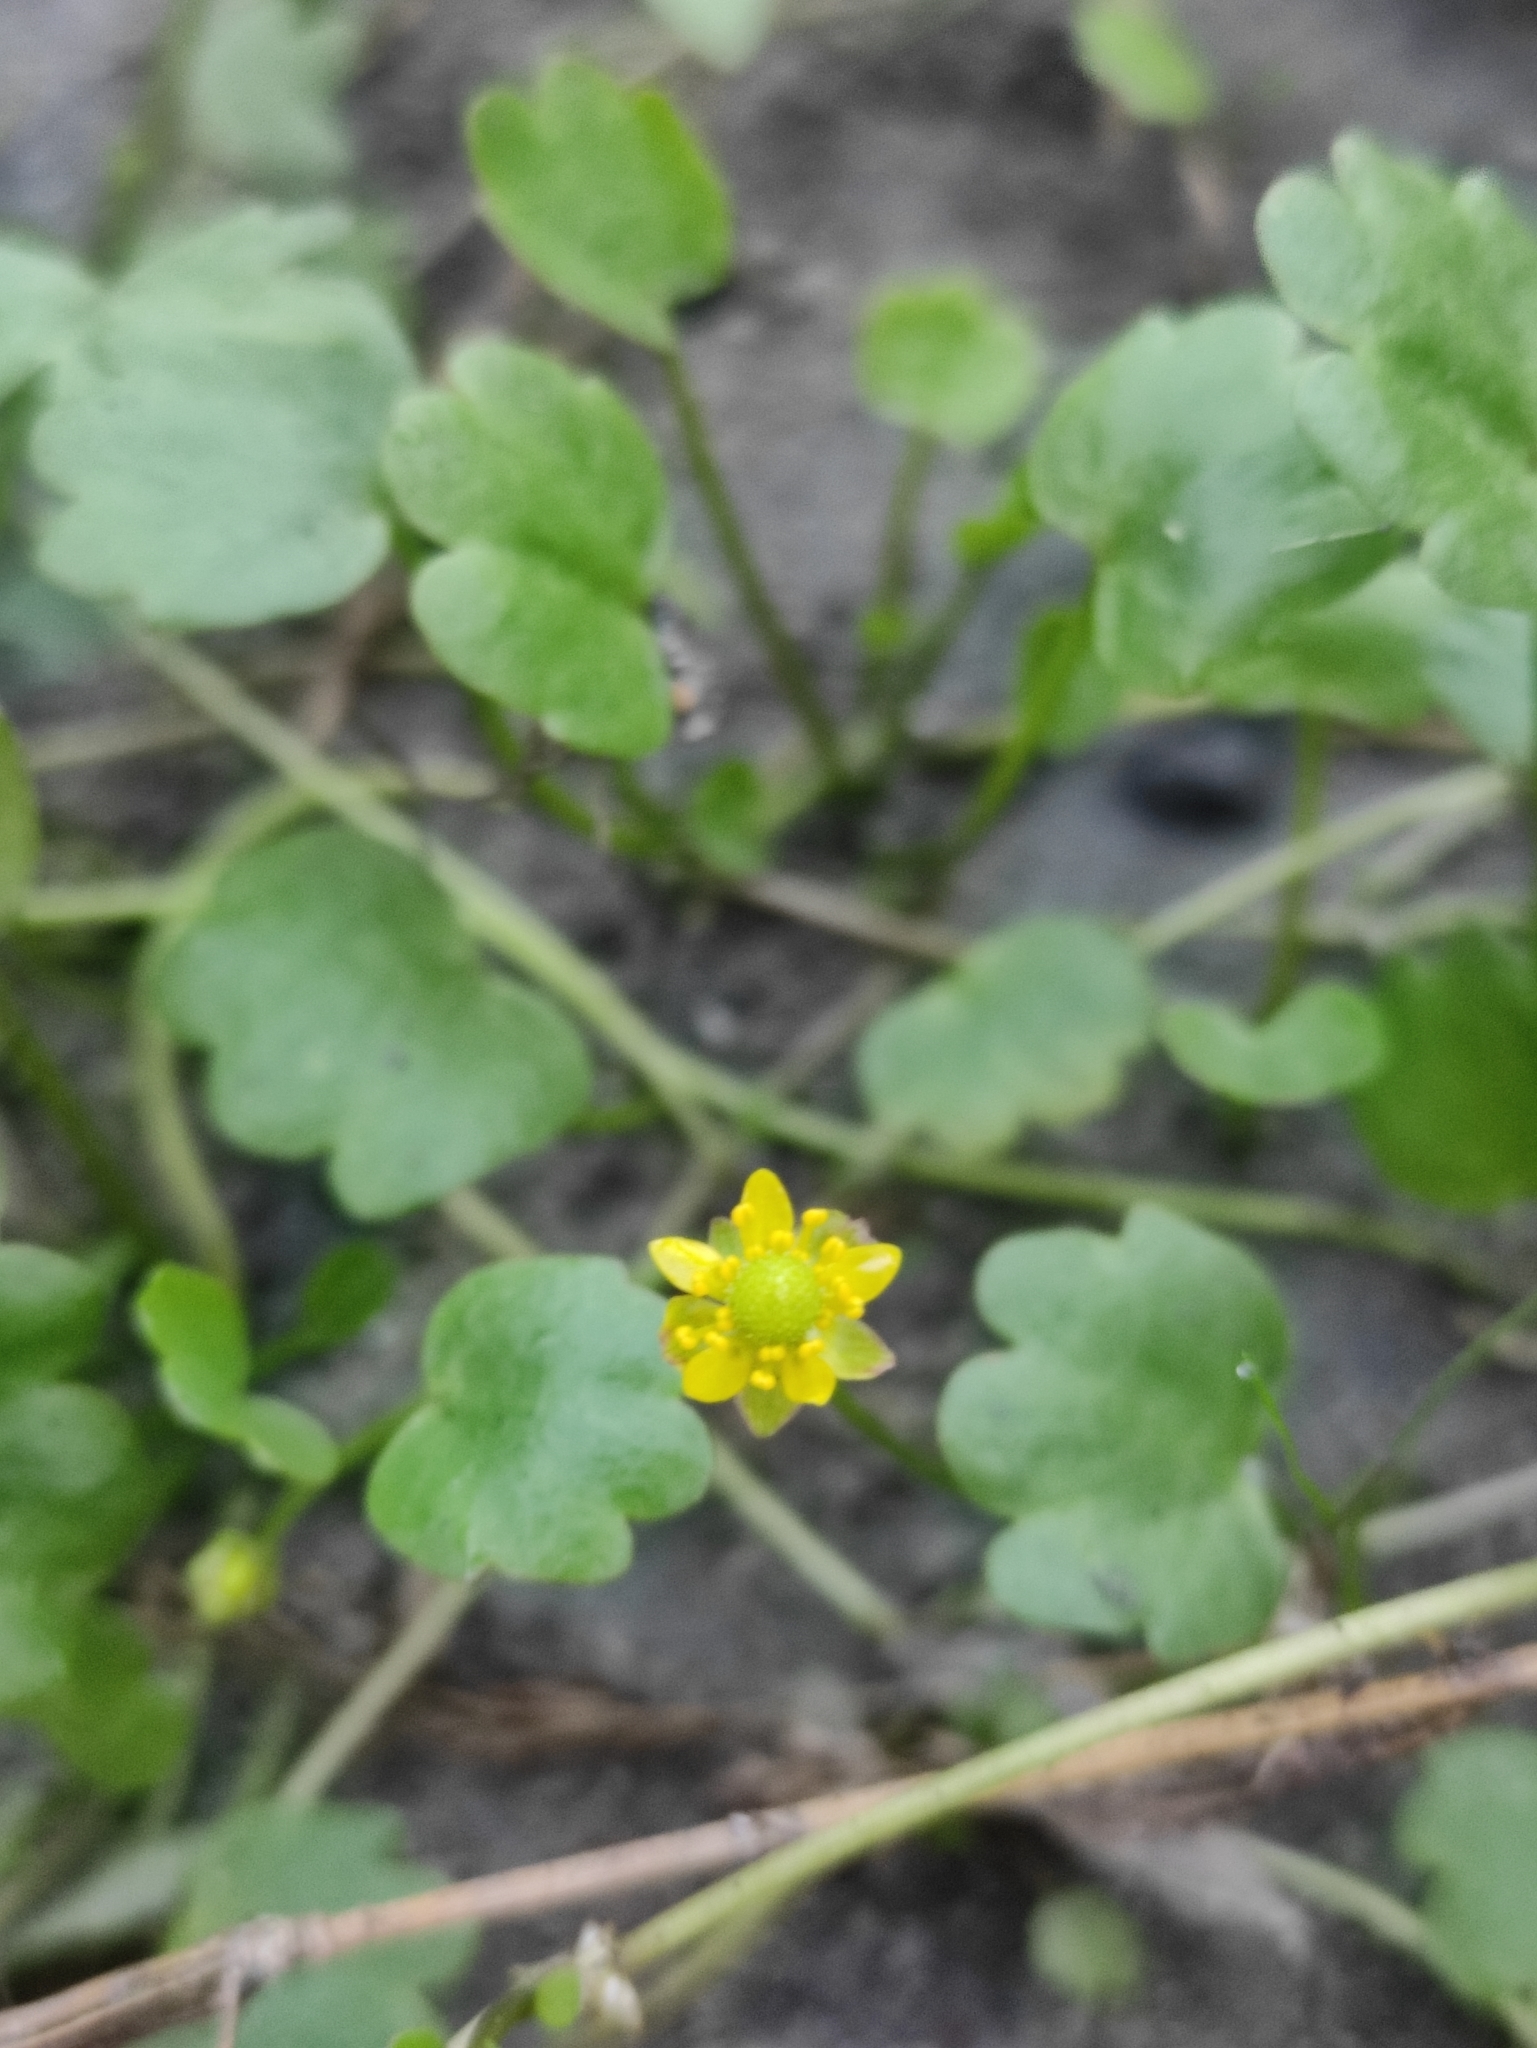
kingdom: Plantae
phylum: Tracheophyta
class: Magnoliopsida
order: Ranunculales
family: Ranunculaceae
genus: Halerpestes
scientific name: Halerpestes sarmentosus
